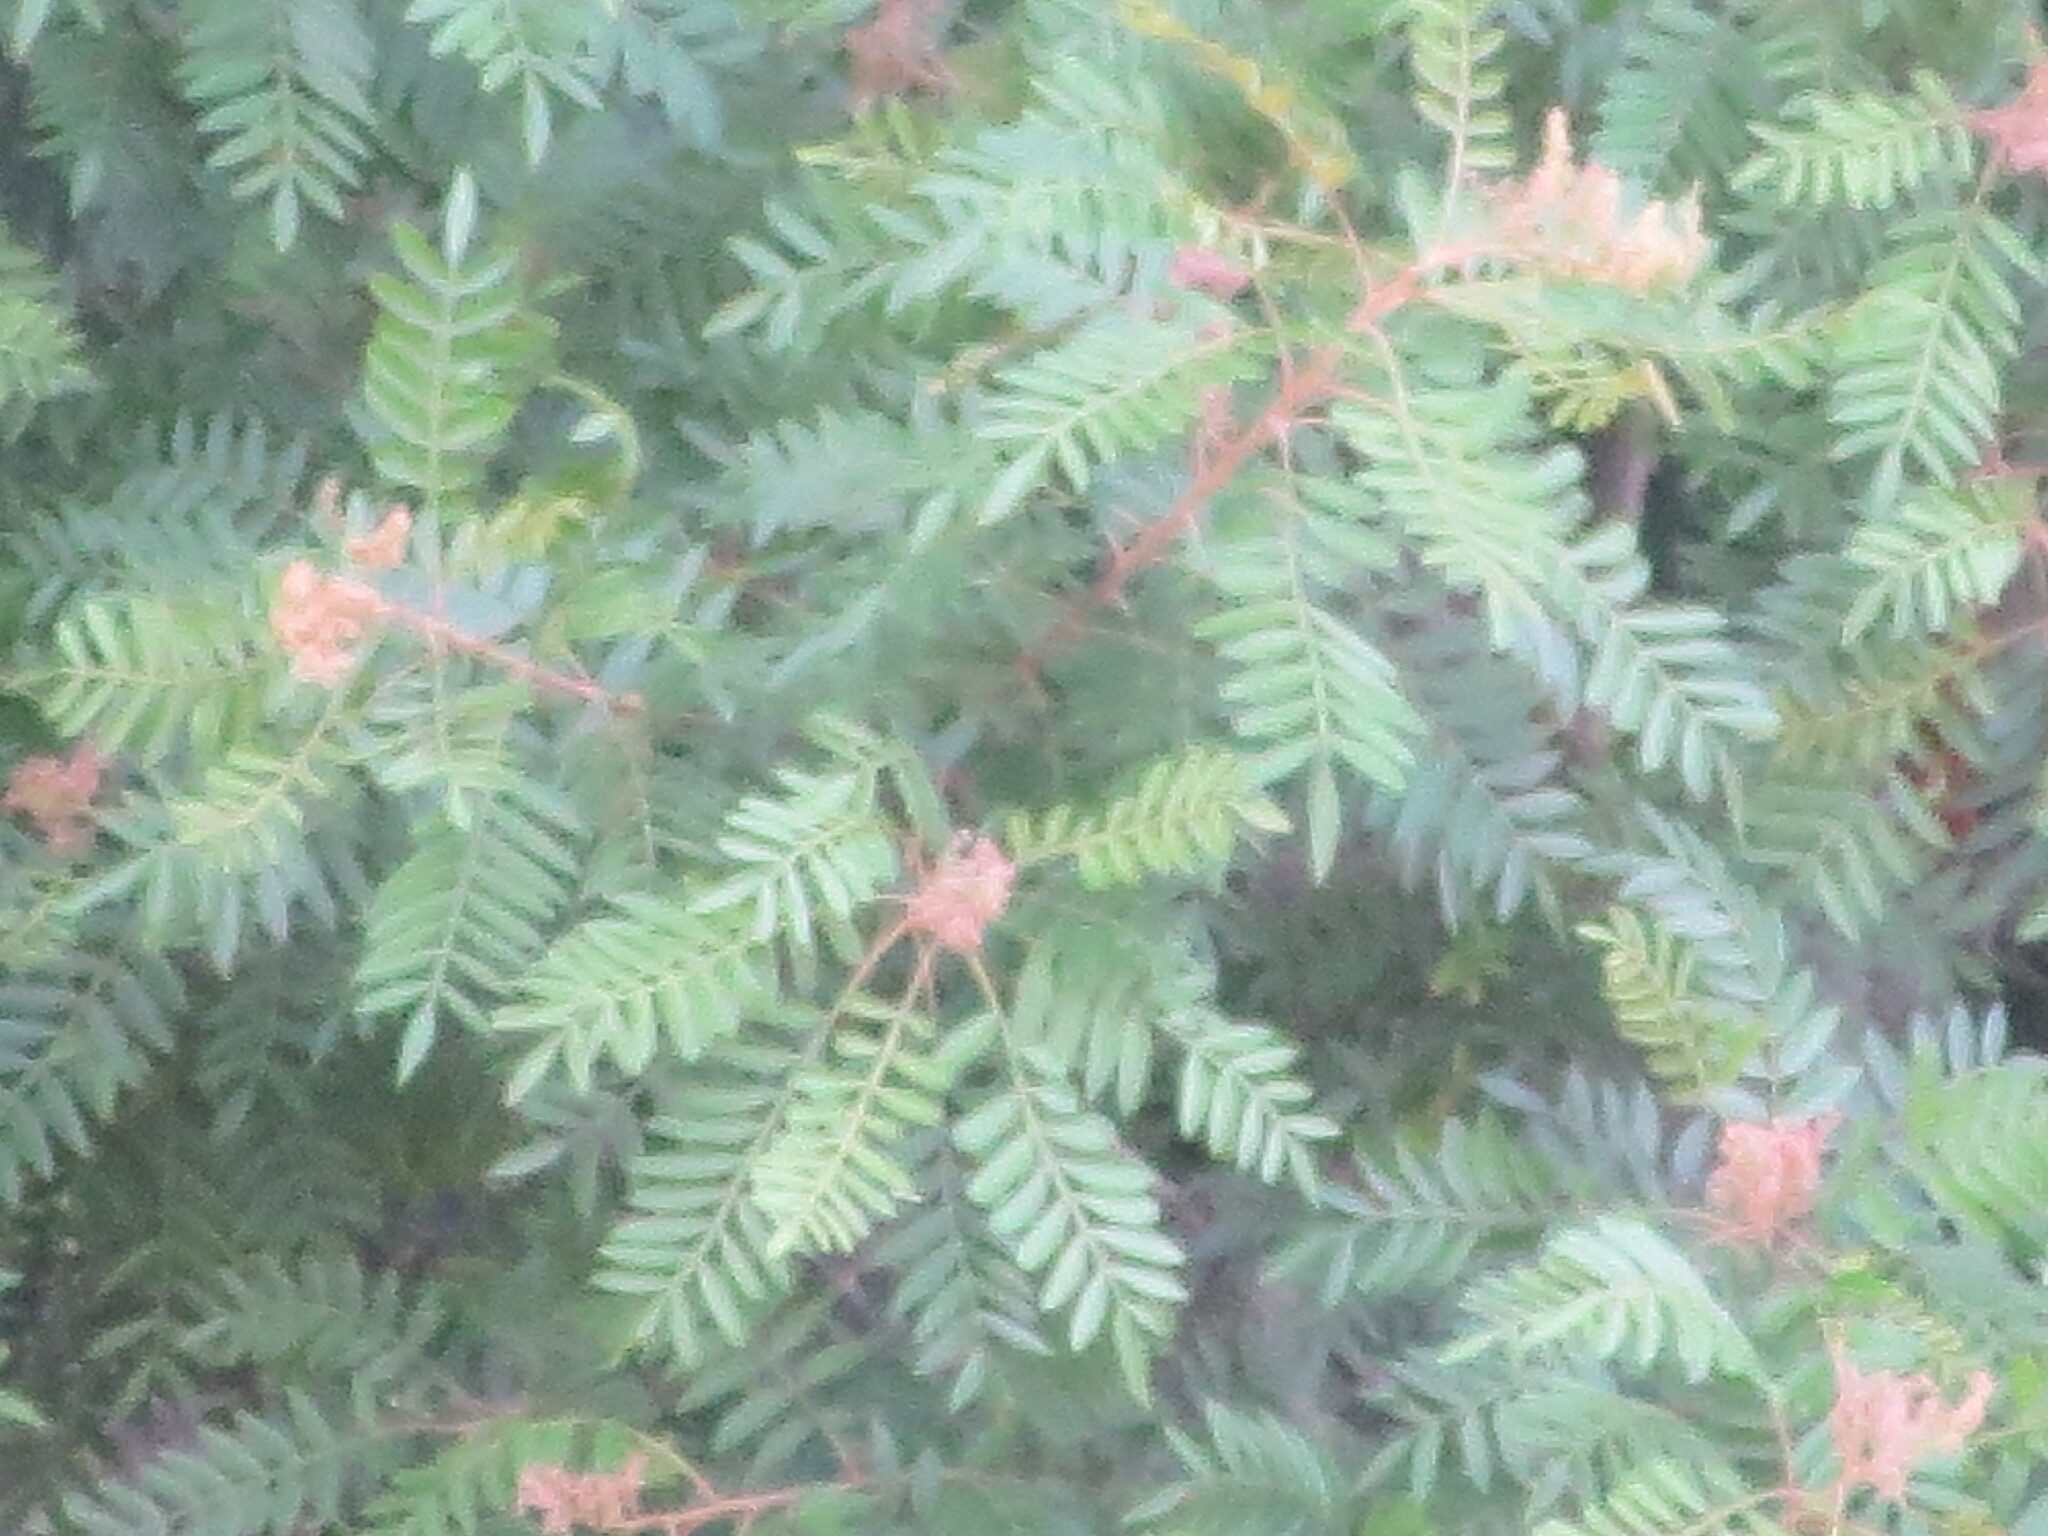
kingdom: Plantae
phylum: Tracheophyta
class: Magnoliopsida
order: Sapindales
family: Anacardiaceae
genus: Rhus
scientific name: Rhus copallina
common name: Shining sumac
